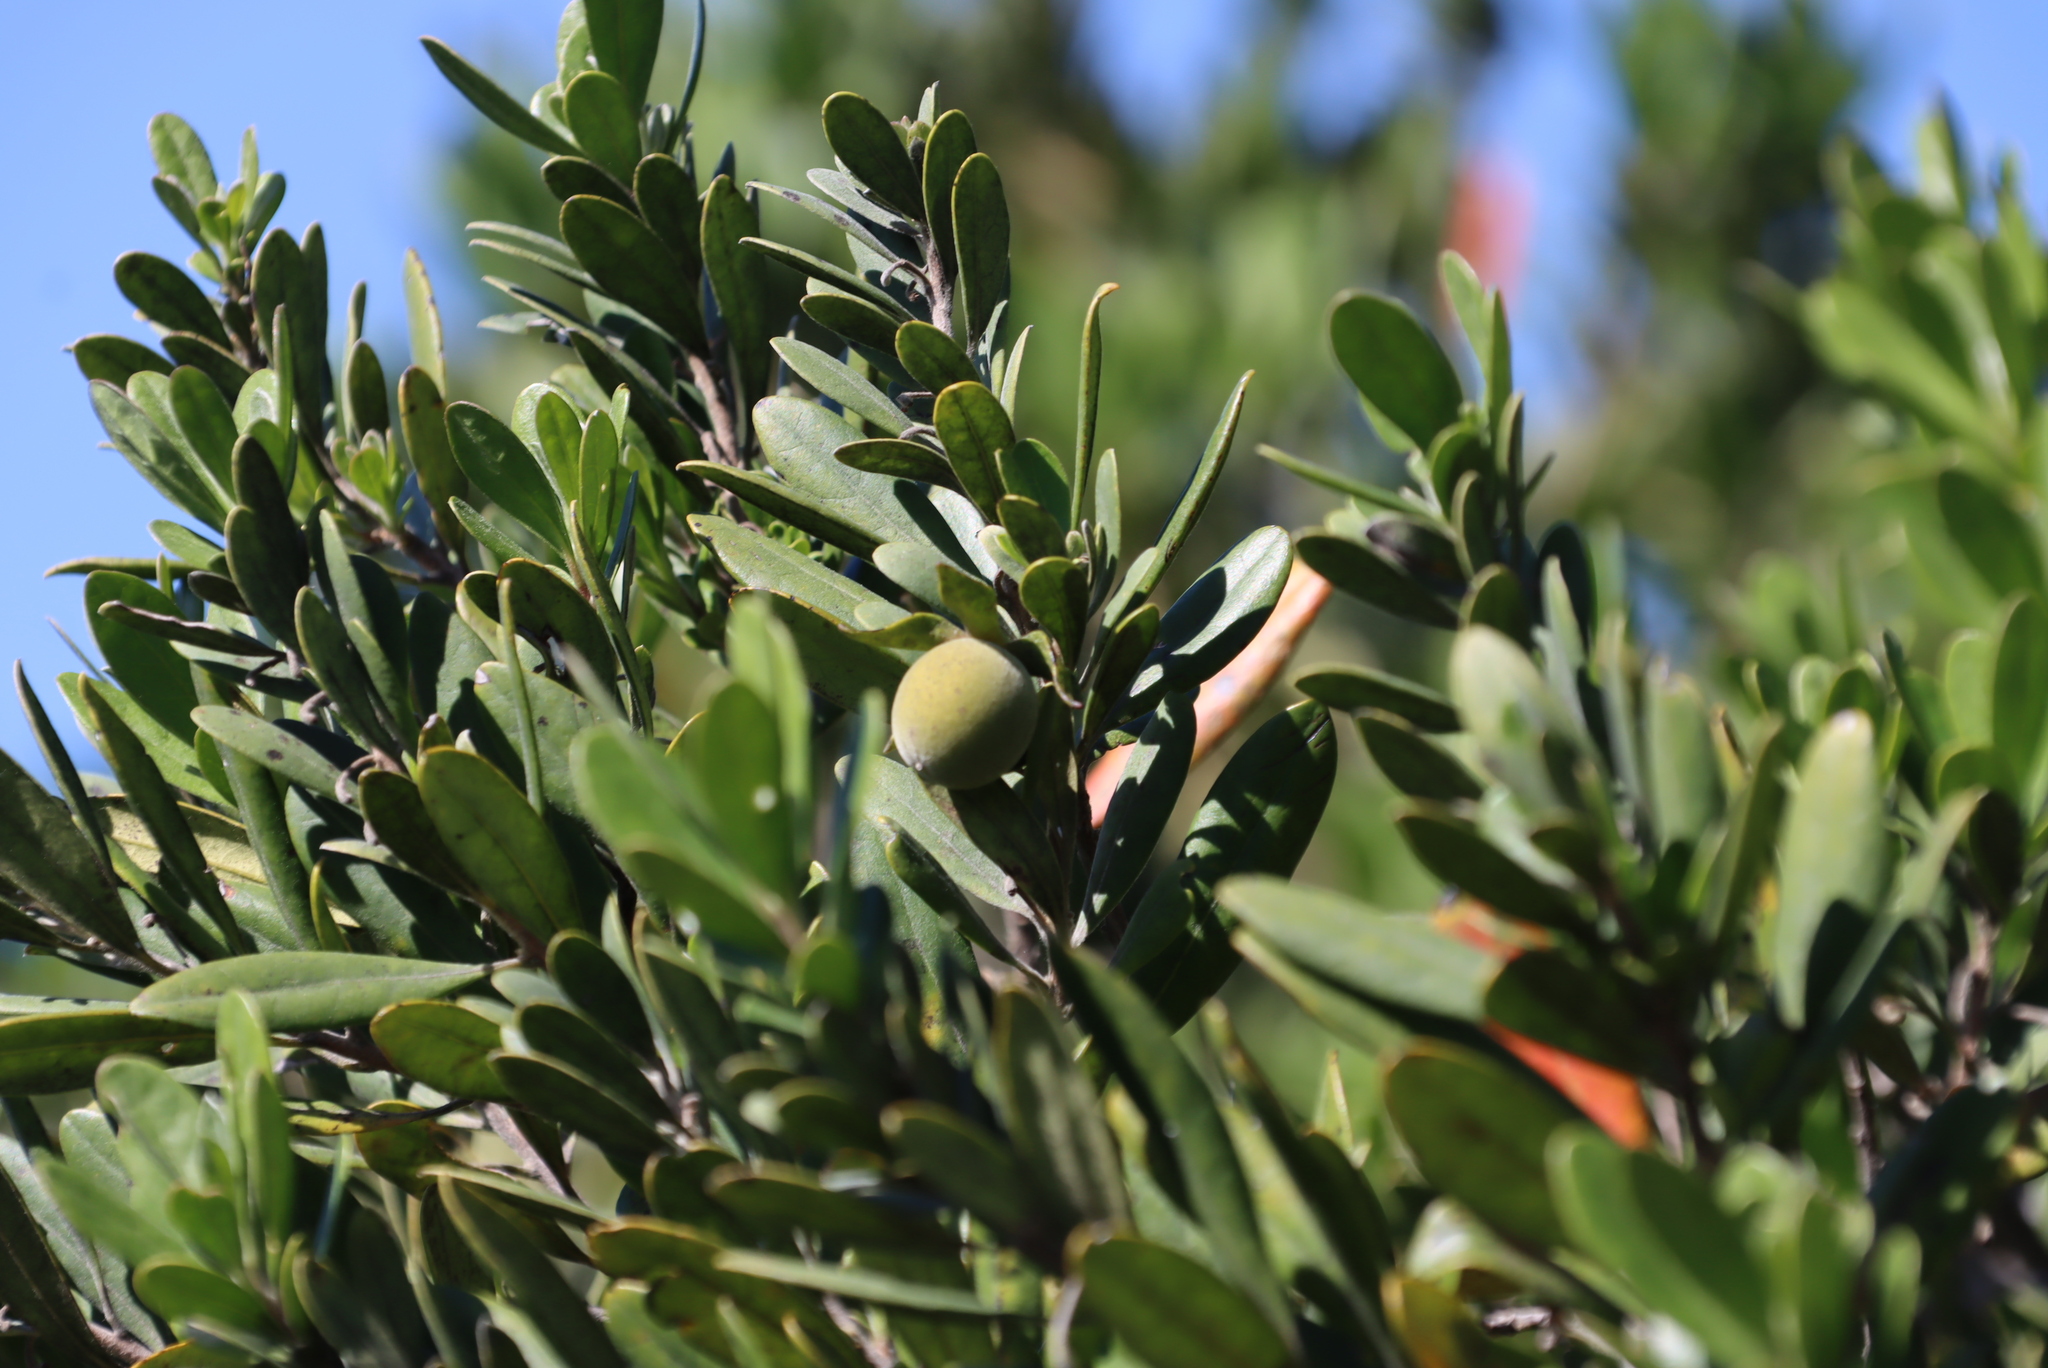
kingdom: Plantae
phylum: Tracheophyta
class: Magnoliopsida
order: Ericales
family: Ebenaceae
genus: Diospyros
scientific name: Diospyros dichrophylla
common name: Common star-apple
